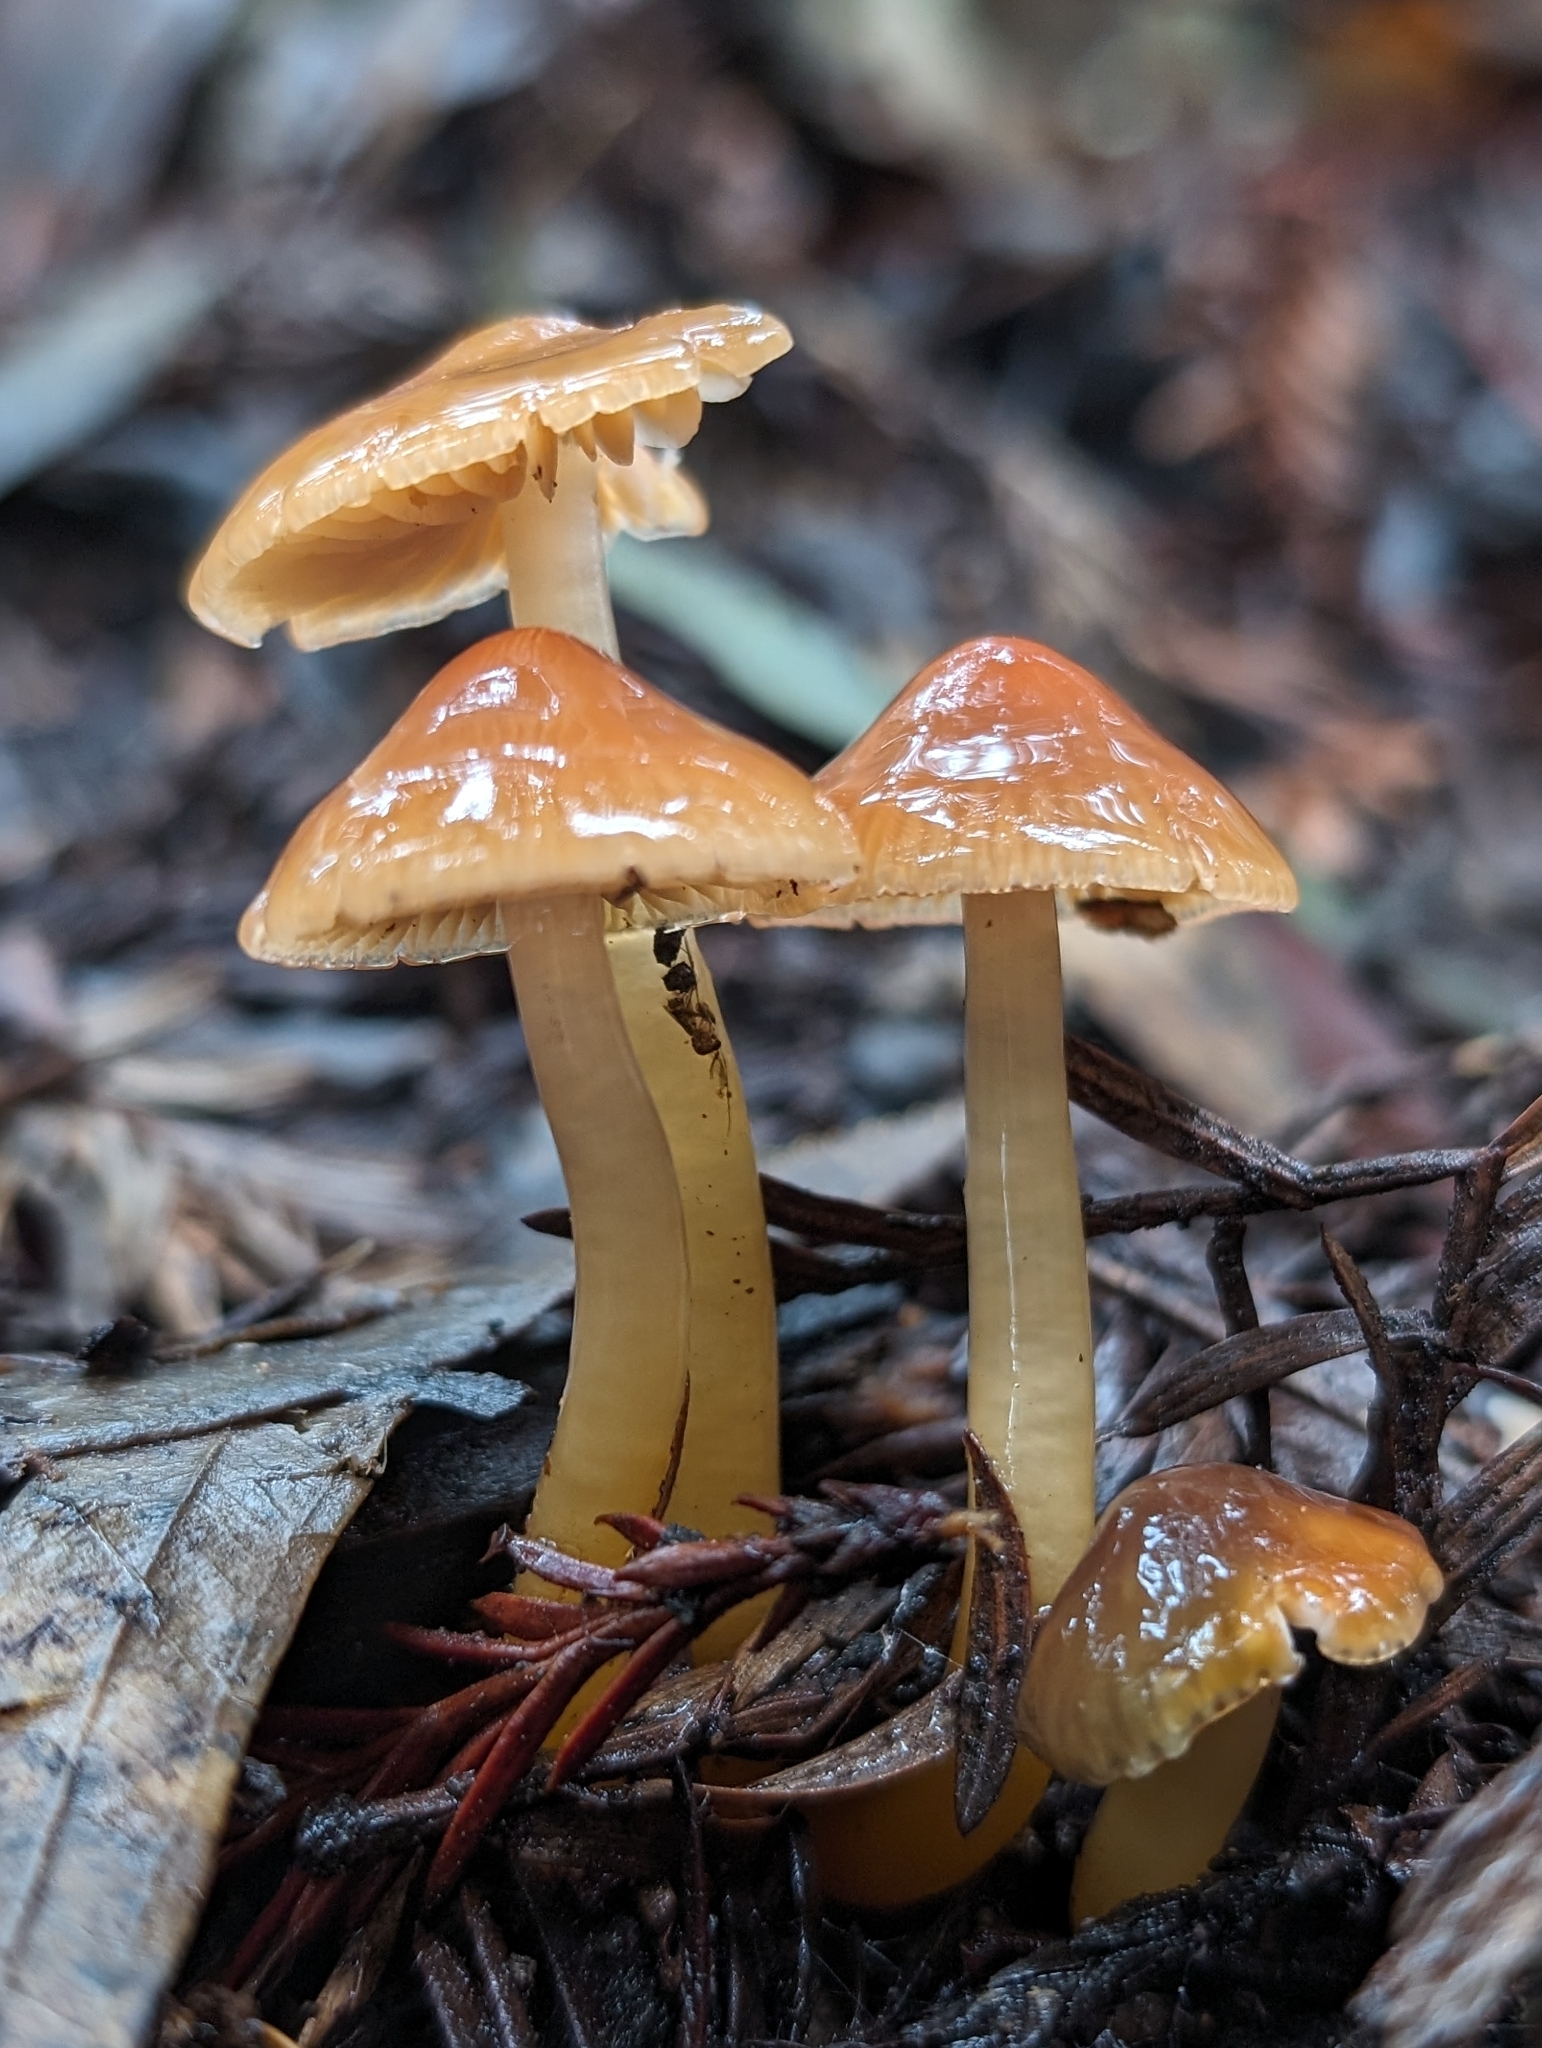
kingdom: Fungi
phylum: Basidiomycota
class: Agaricomycetes
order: Agaricales
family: Hygrophoraceae
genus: Gliophorus
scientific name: Gliophorus psittacinus
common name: Parrot wax-cap
